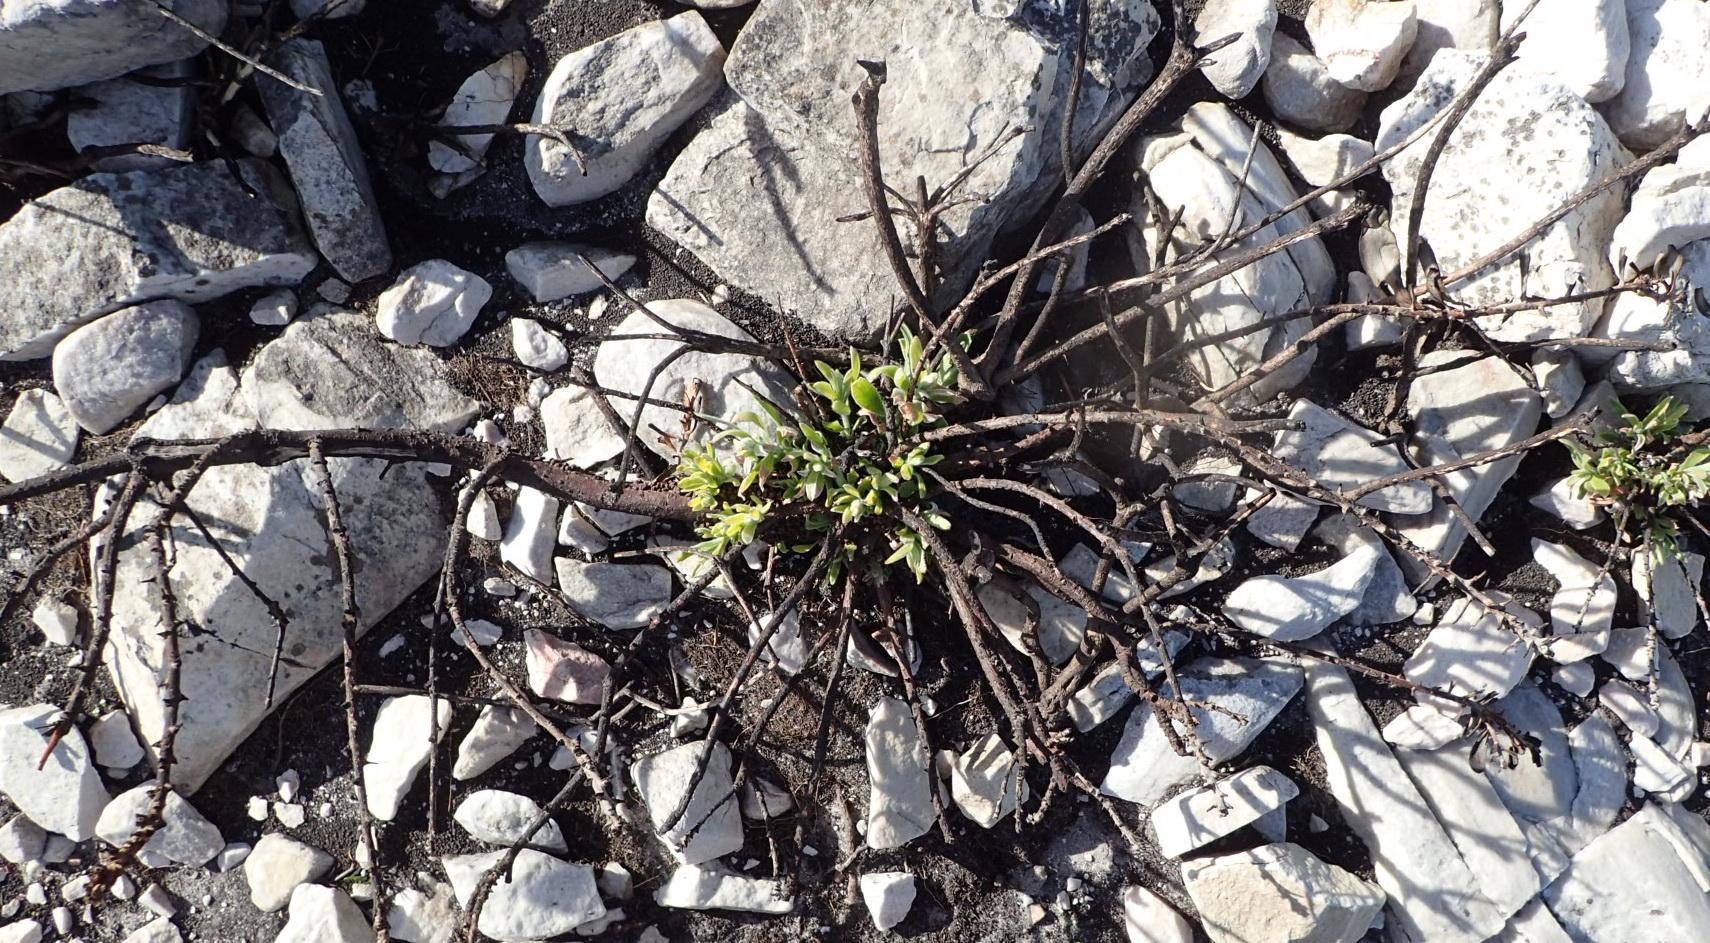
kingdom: Plantae
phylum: Tracheophyta
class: Magnoliopsida
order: Proteales
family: Proteaceae
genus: Leucospermum
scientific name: Leucospermum cuneiforme
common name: Common pincushion
